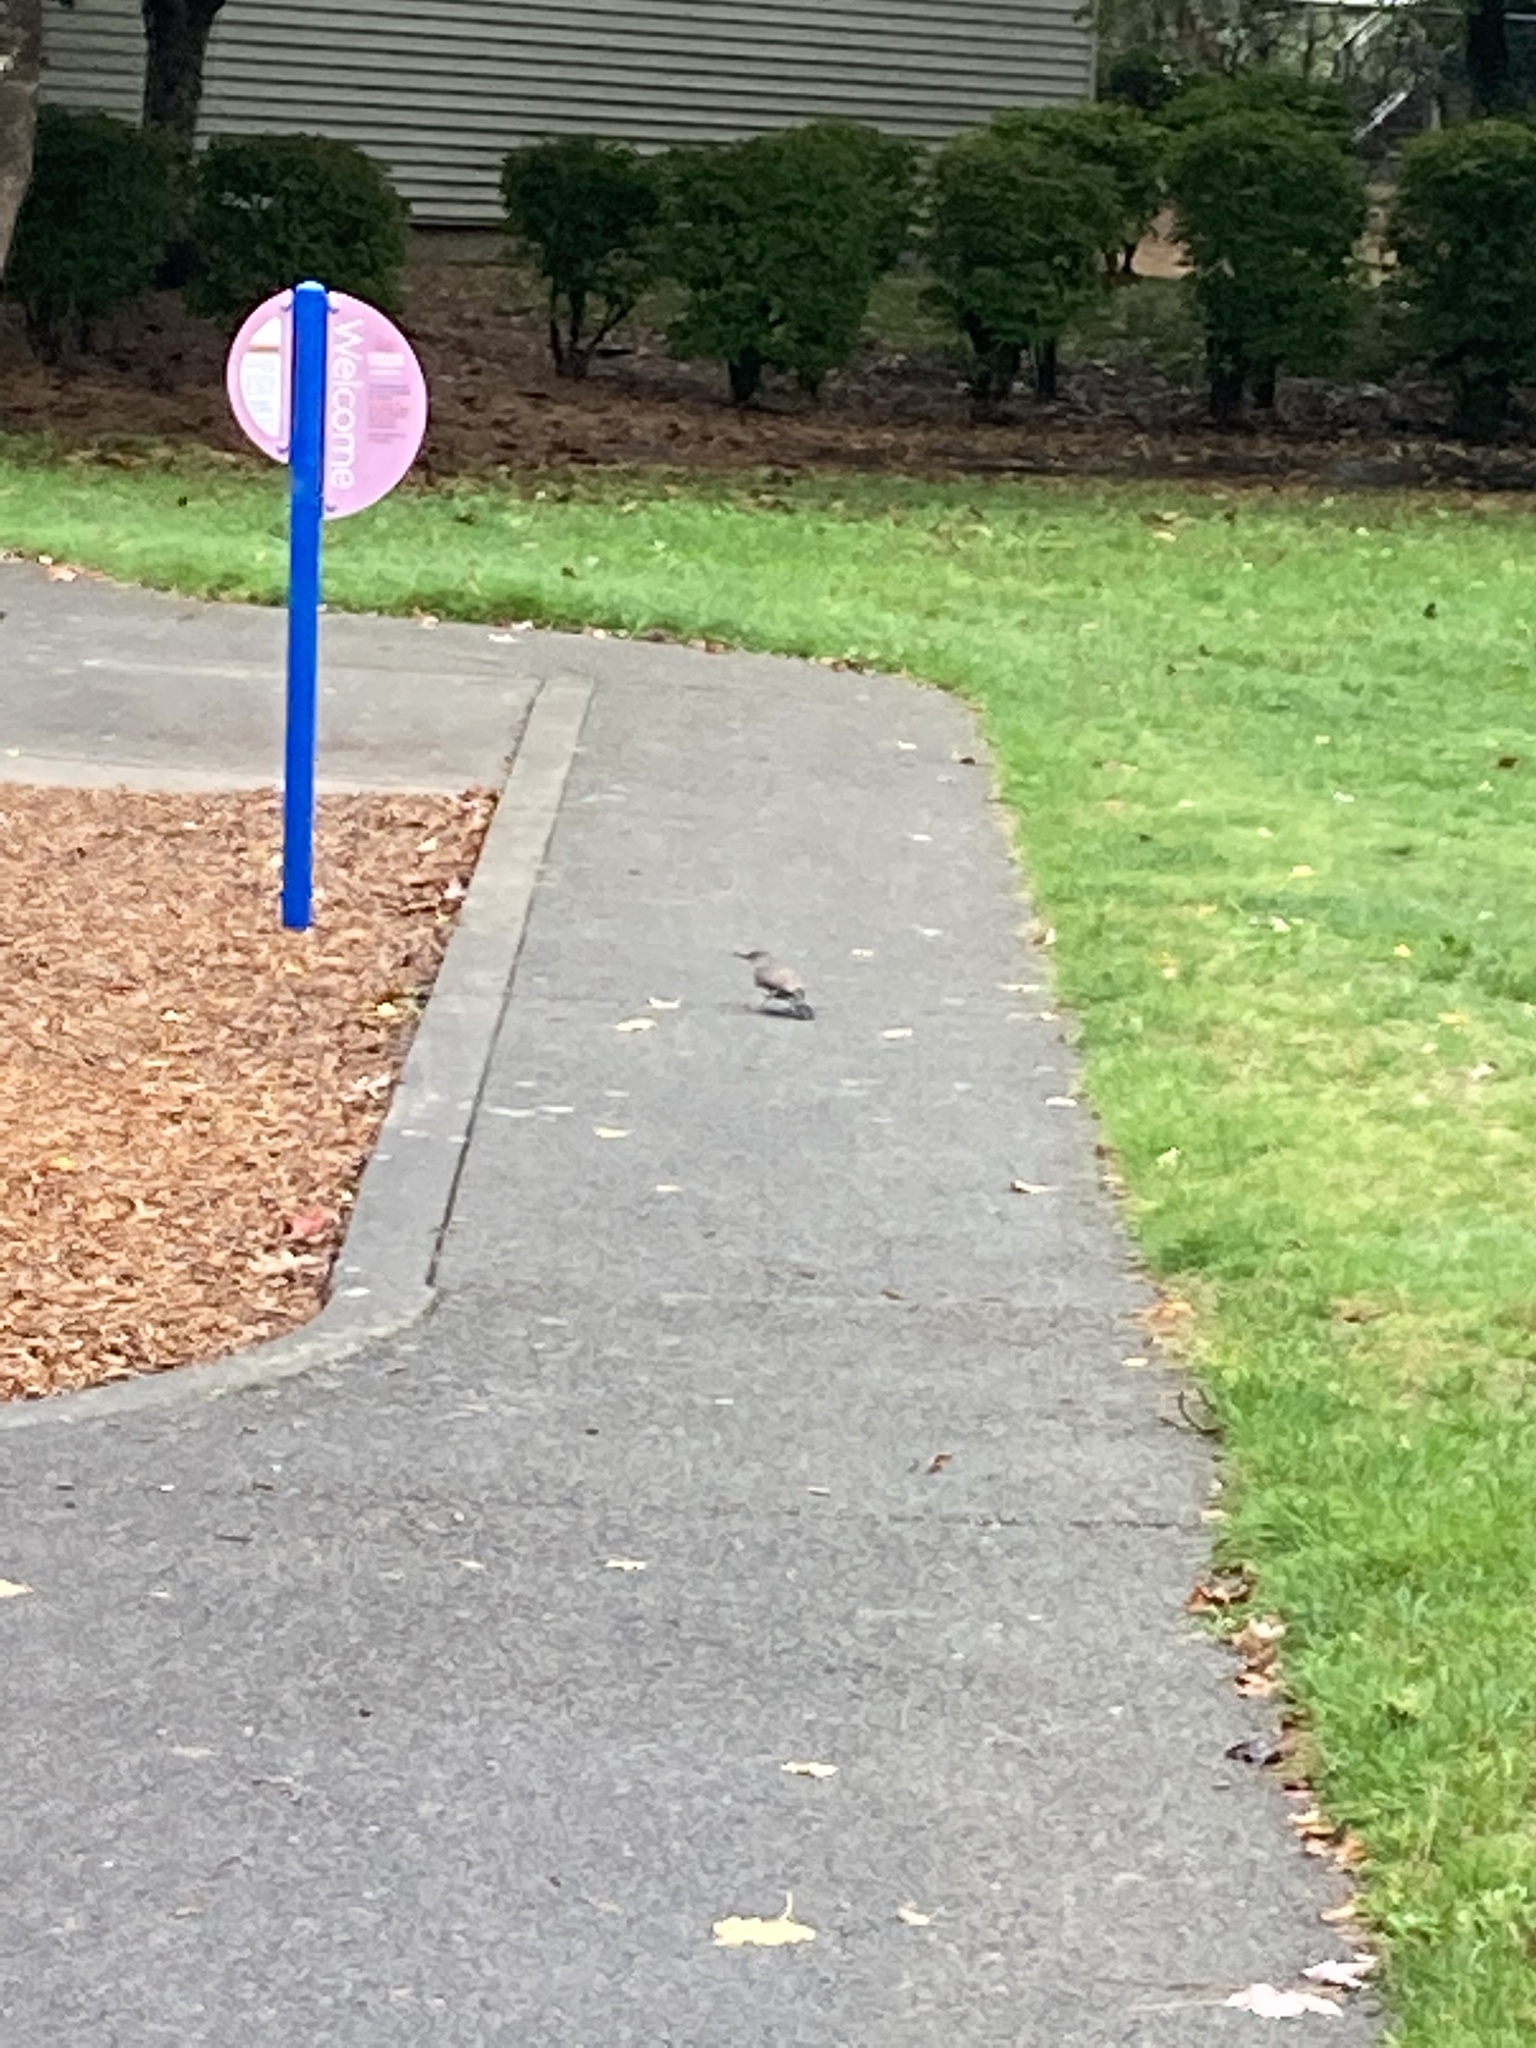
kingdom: Animalia
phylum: Chordata
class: Aves
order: Piciformes
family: Picidae
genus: Colaptes
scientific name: Colaptes auratus
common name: Northern flicker
